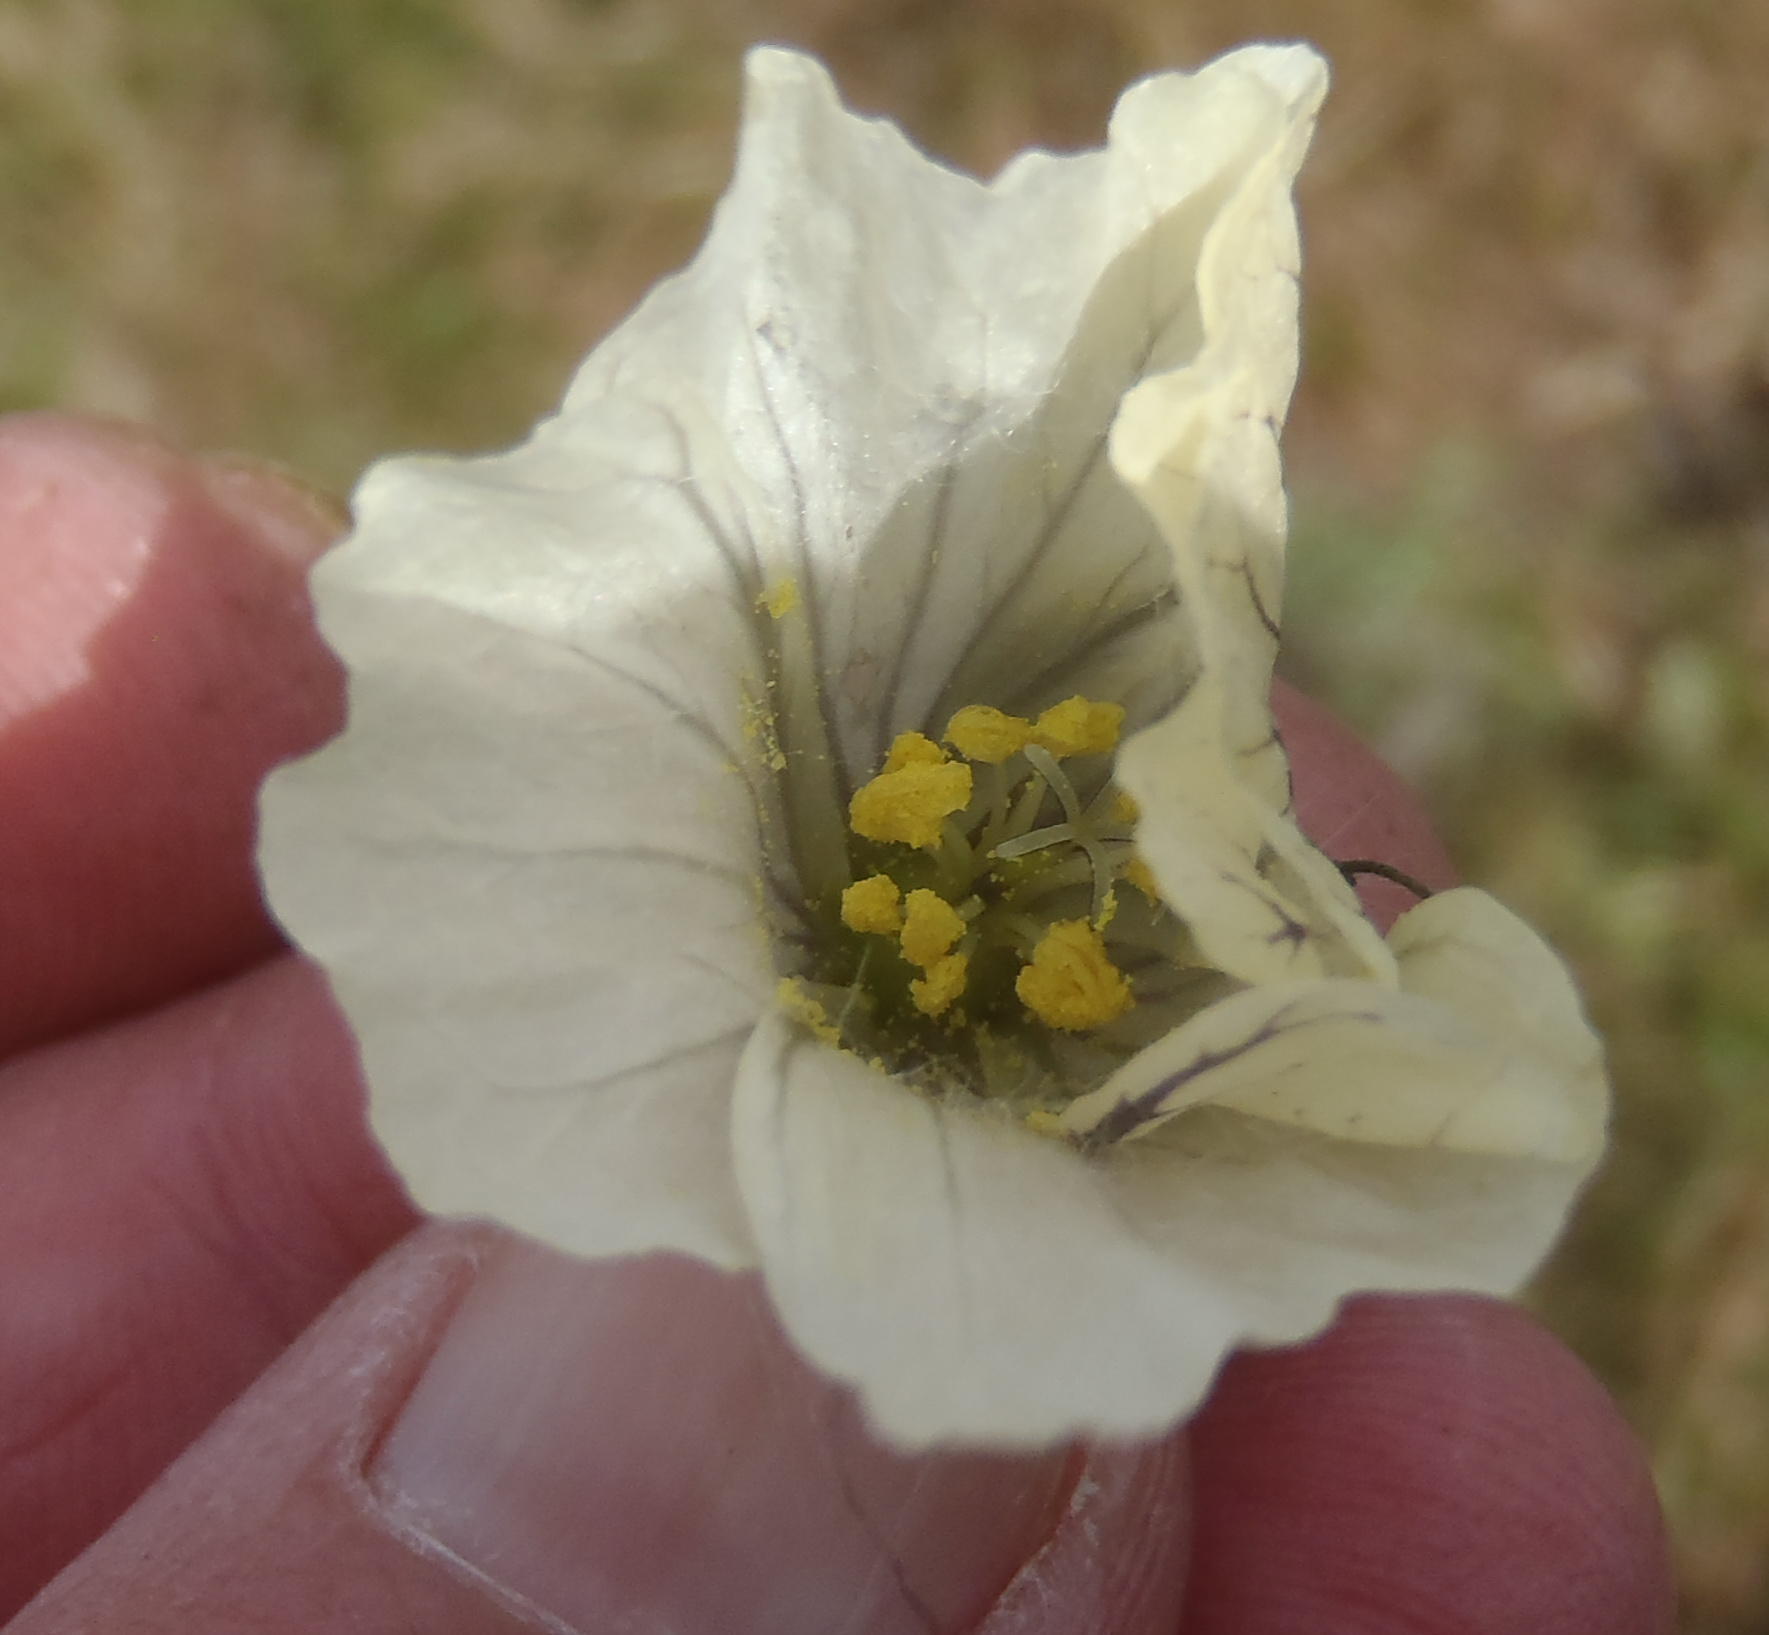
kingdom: Plantae
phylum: Tracheophyta
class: Magnoliopsida
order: Geraniales
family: Geraniaceae
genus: Monsonia
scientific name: Monsonia emarginata
